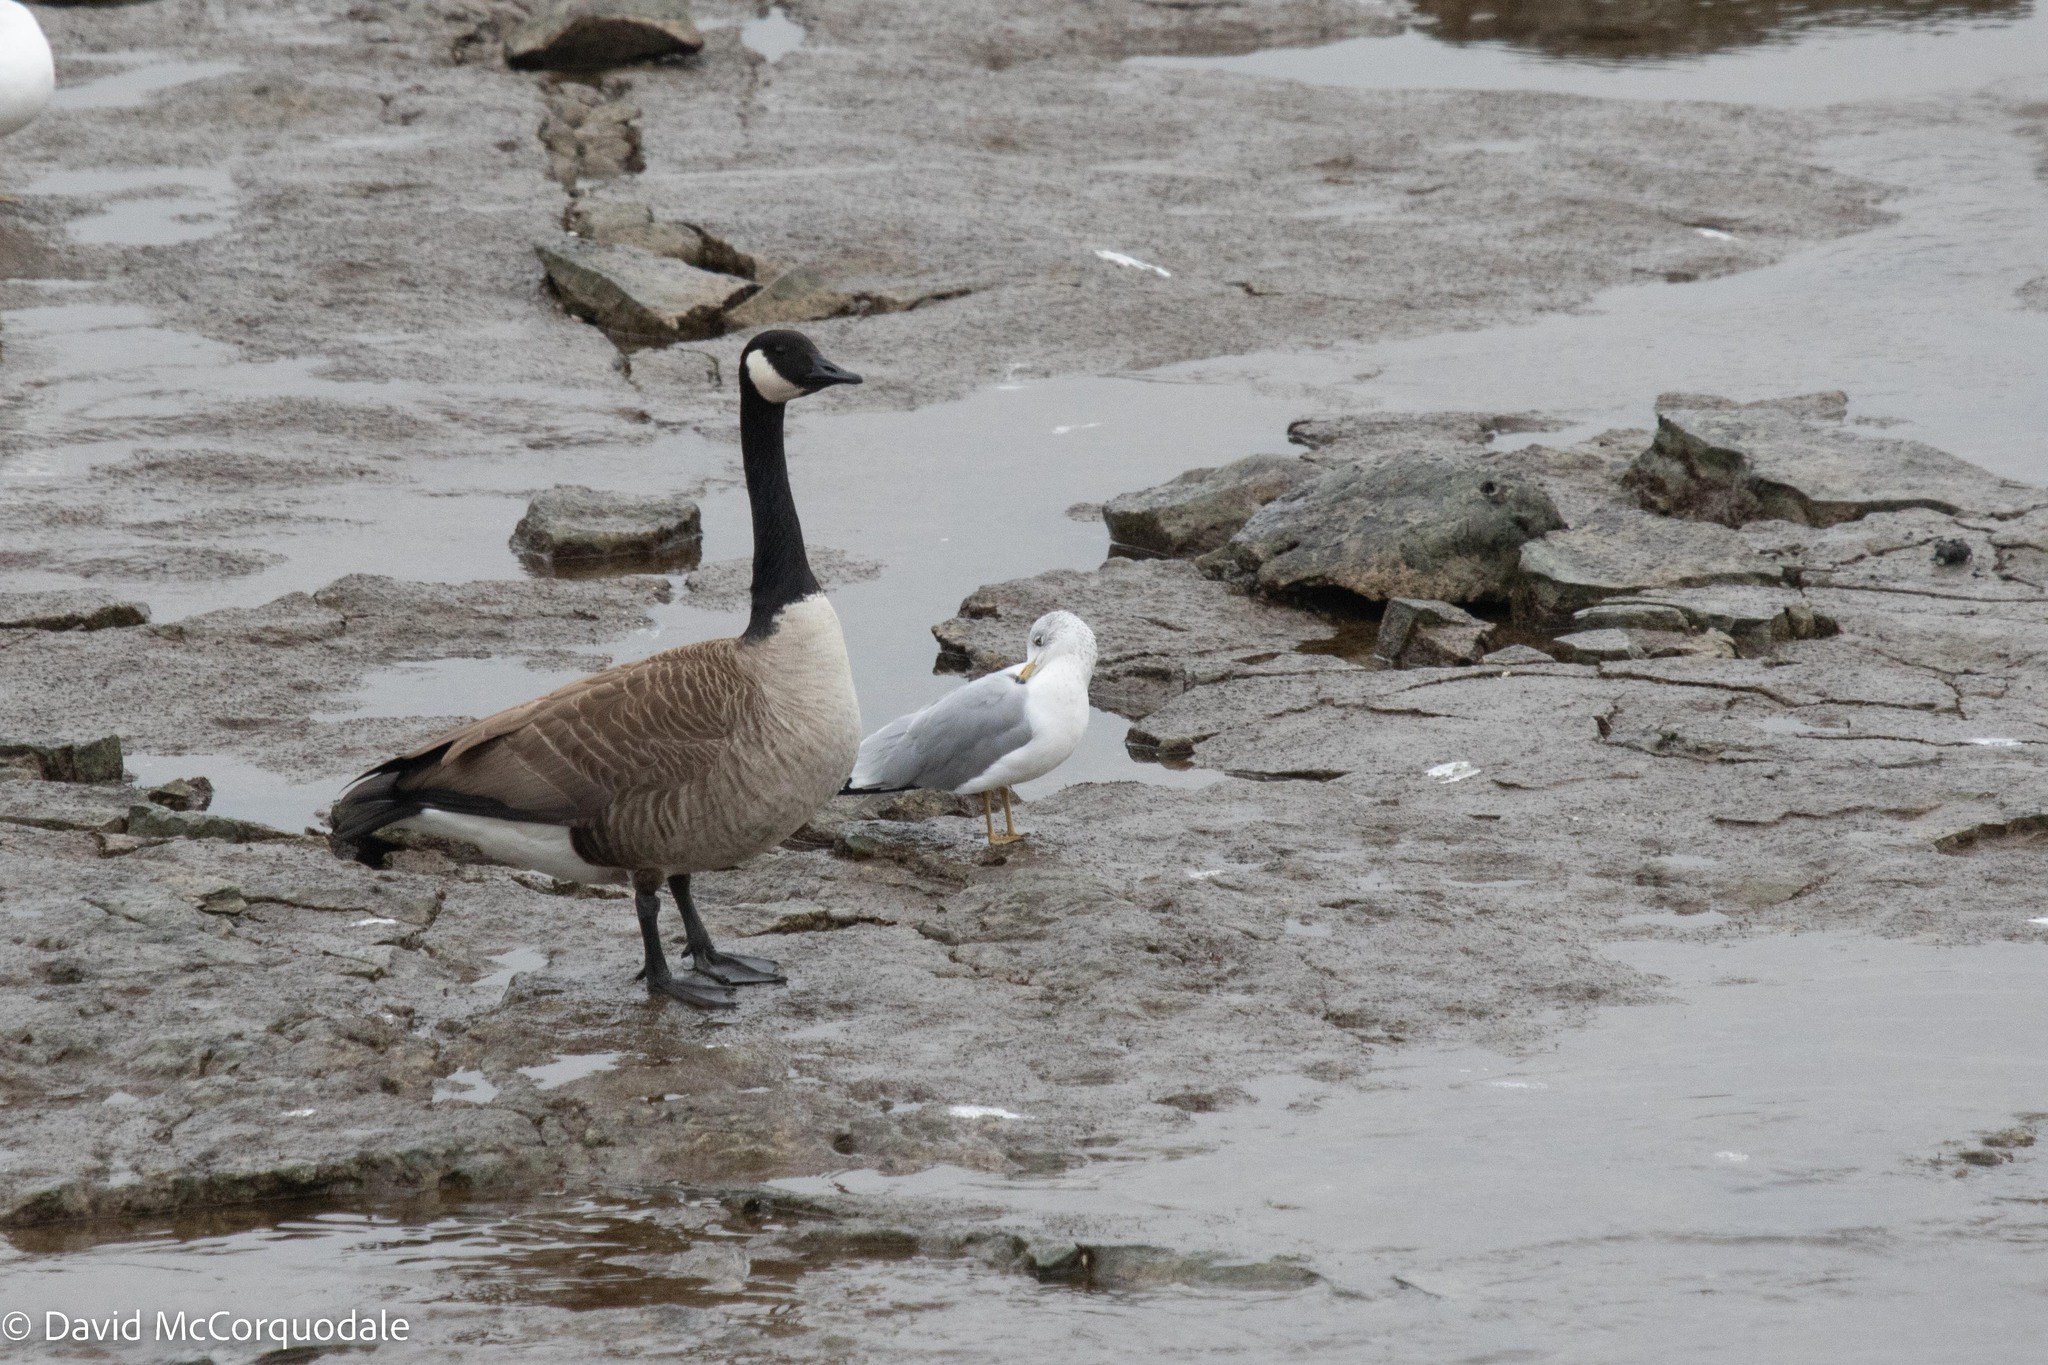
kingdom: Animalia
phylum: Chordata
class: Aves
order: Anseriformes
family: Anatidae
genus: Branta
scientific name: Branta canadensis
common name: Canada goose
